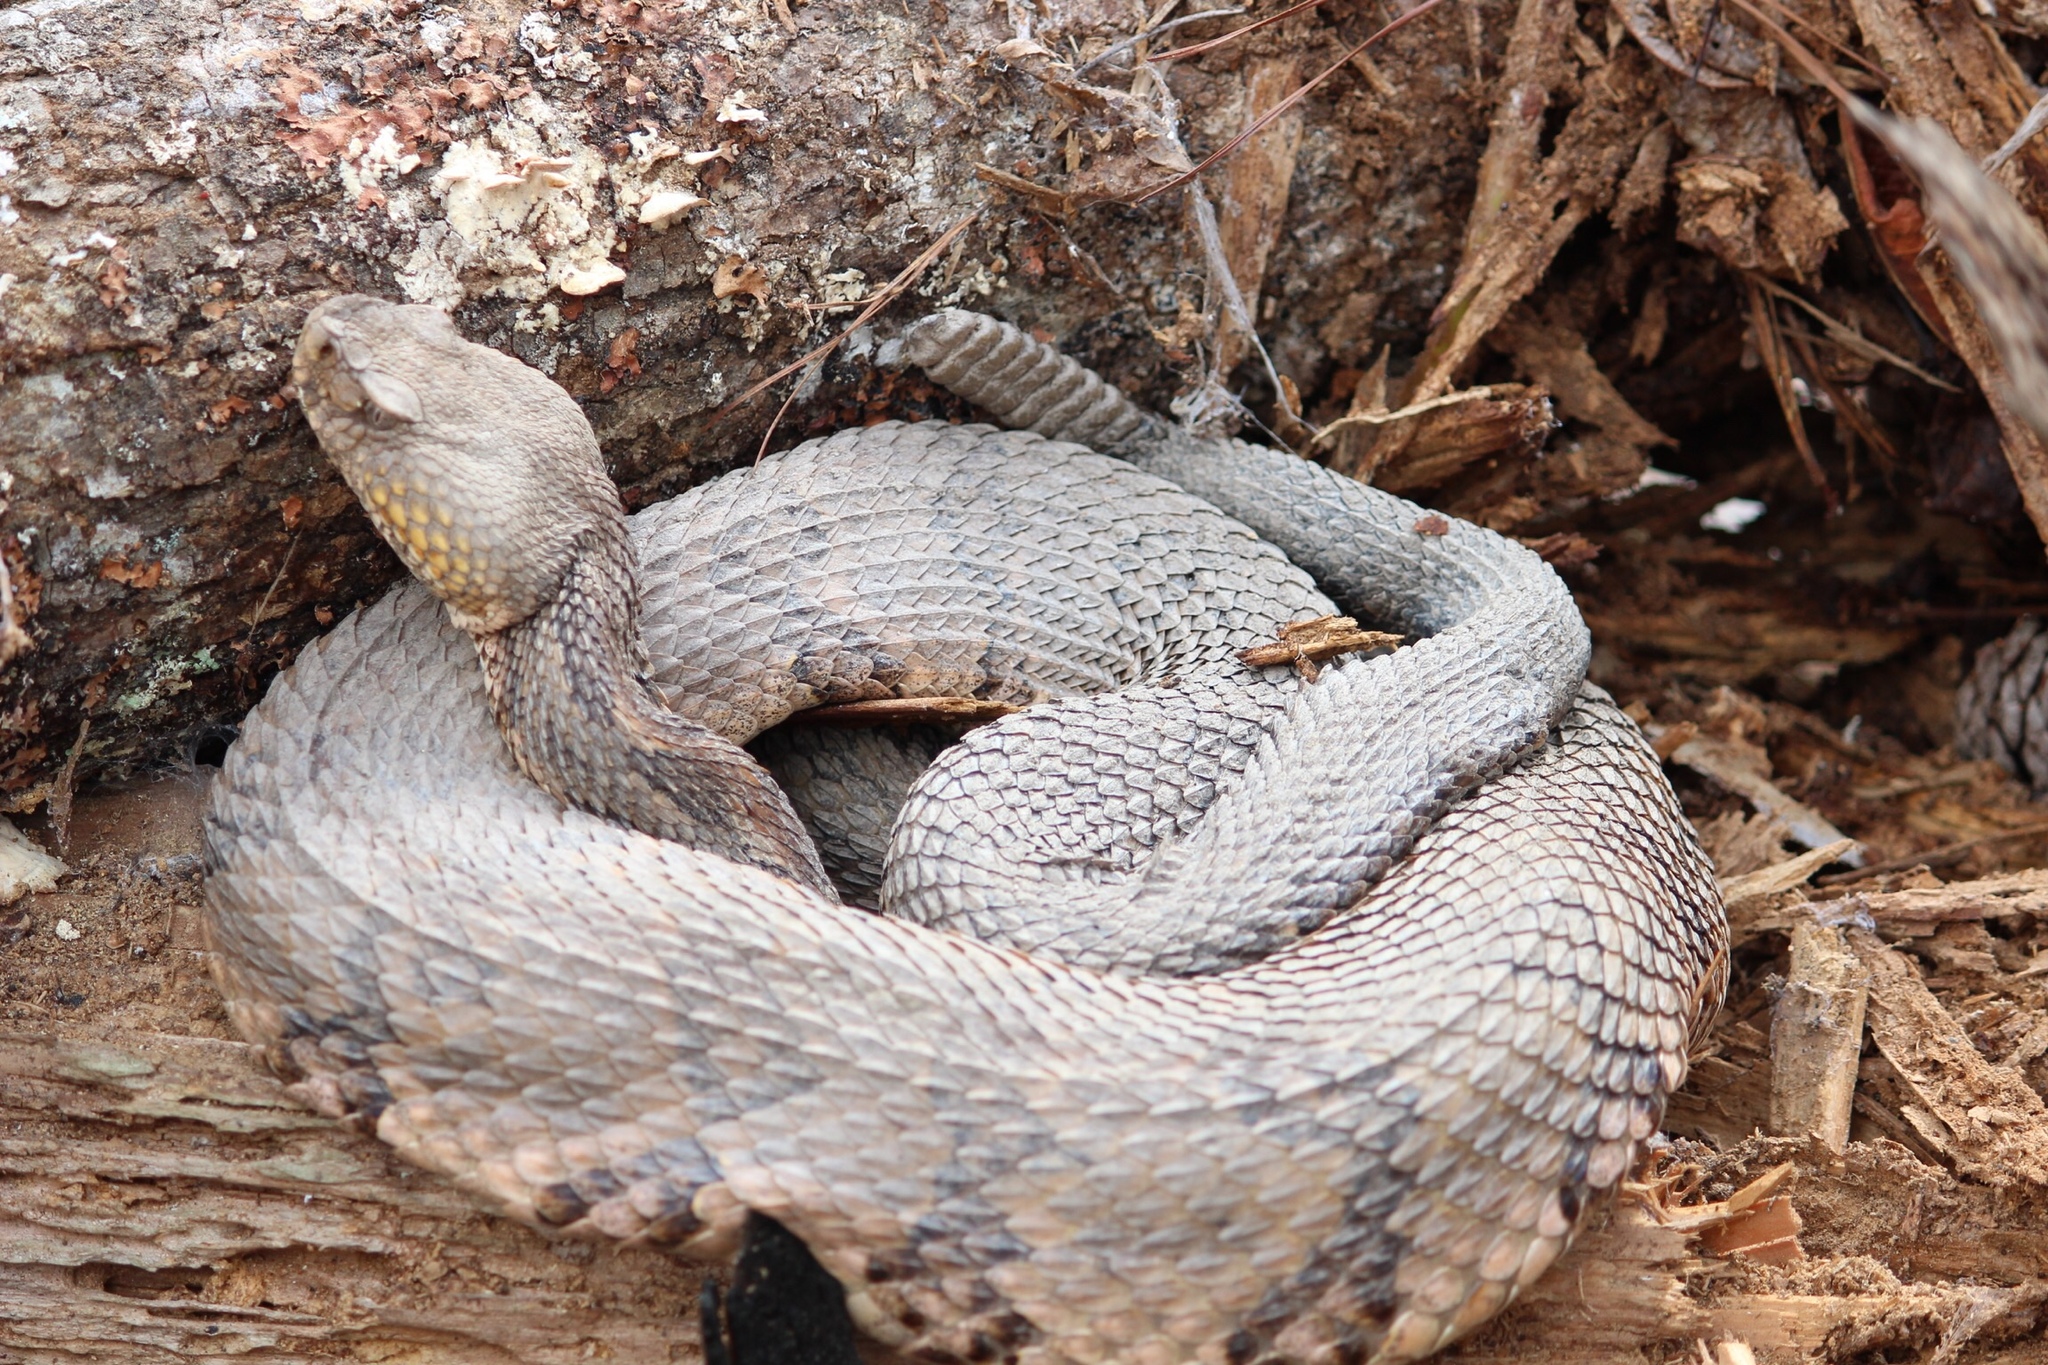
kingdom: Animalia
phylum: Chordata
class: Squamata
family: Viperidae
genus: Crotalus
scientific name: Crotalus horridus
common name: Timber rattlesnake
